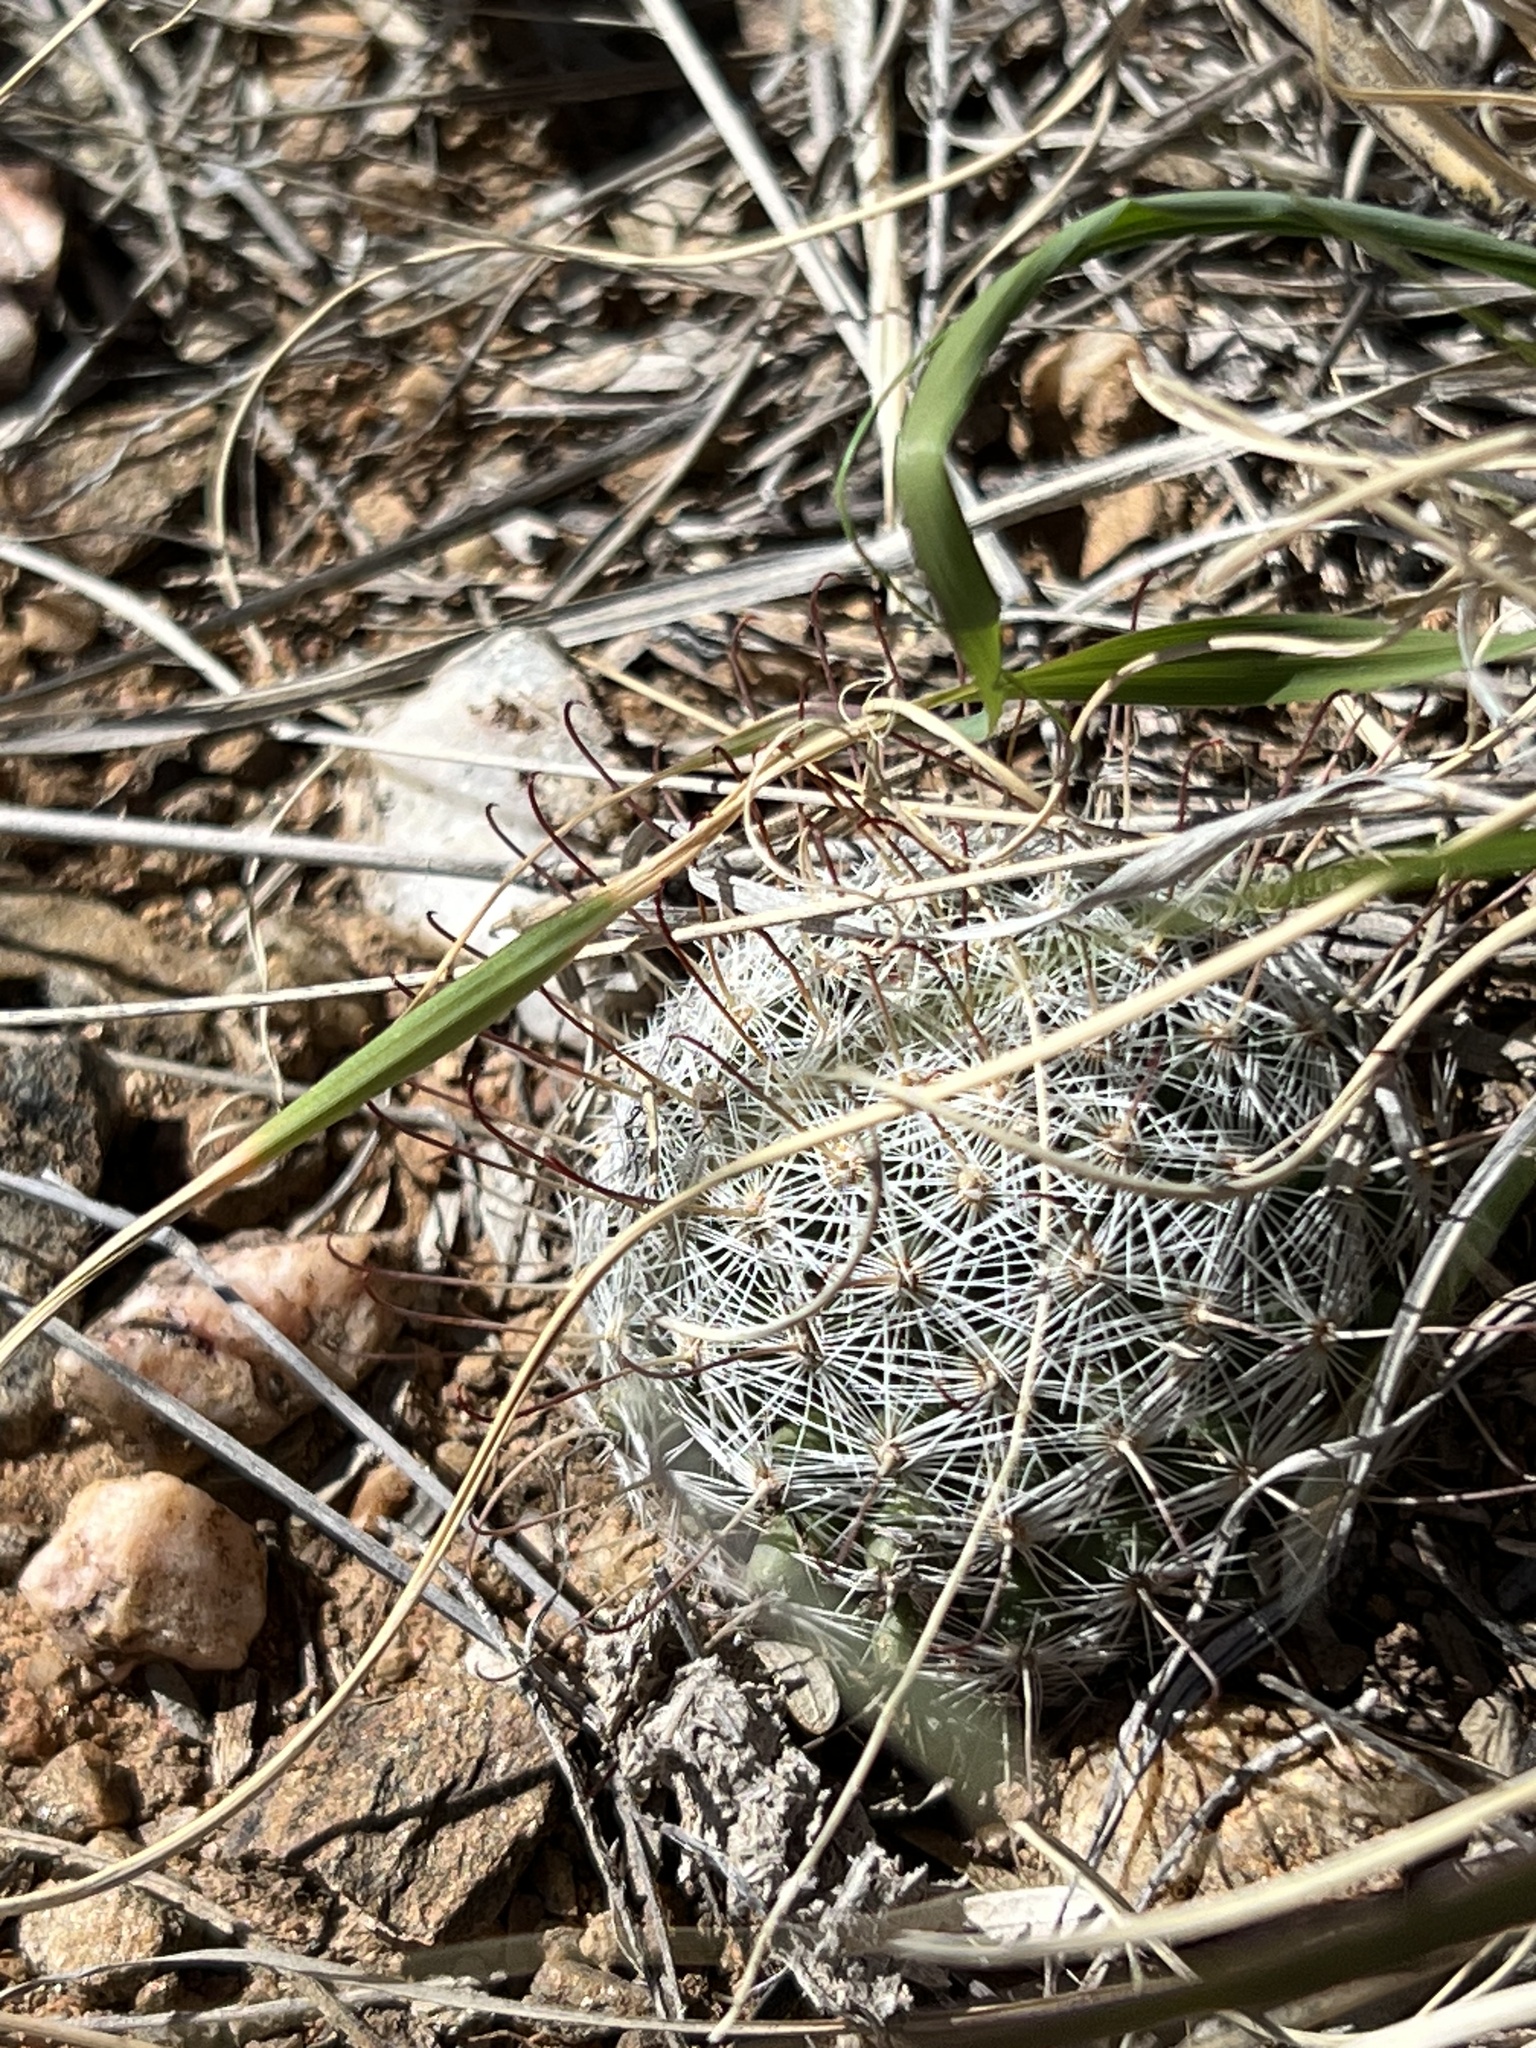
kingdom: Plantae
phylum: Tracheophyta
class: Magnoliopsida
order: Caryophyllales
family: Cactaceae
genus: Cochemiea
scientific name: Cochemiea grahamii
